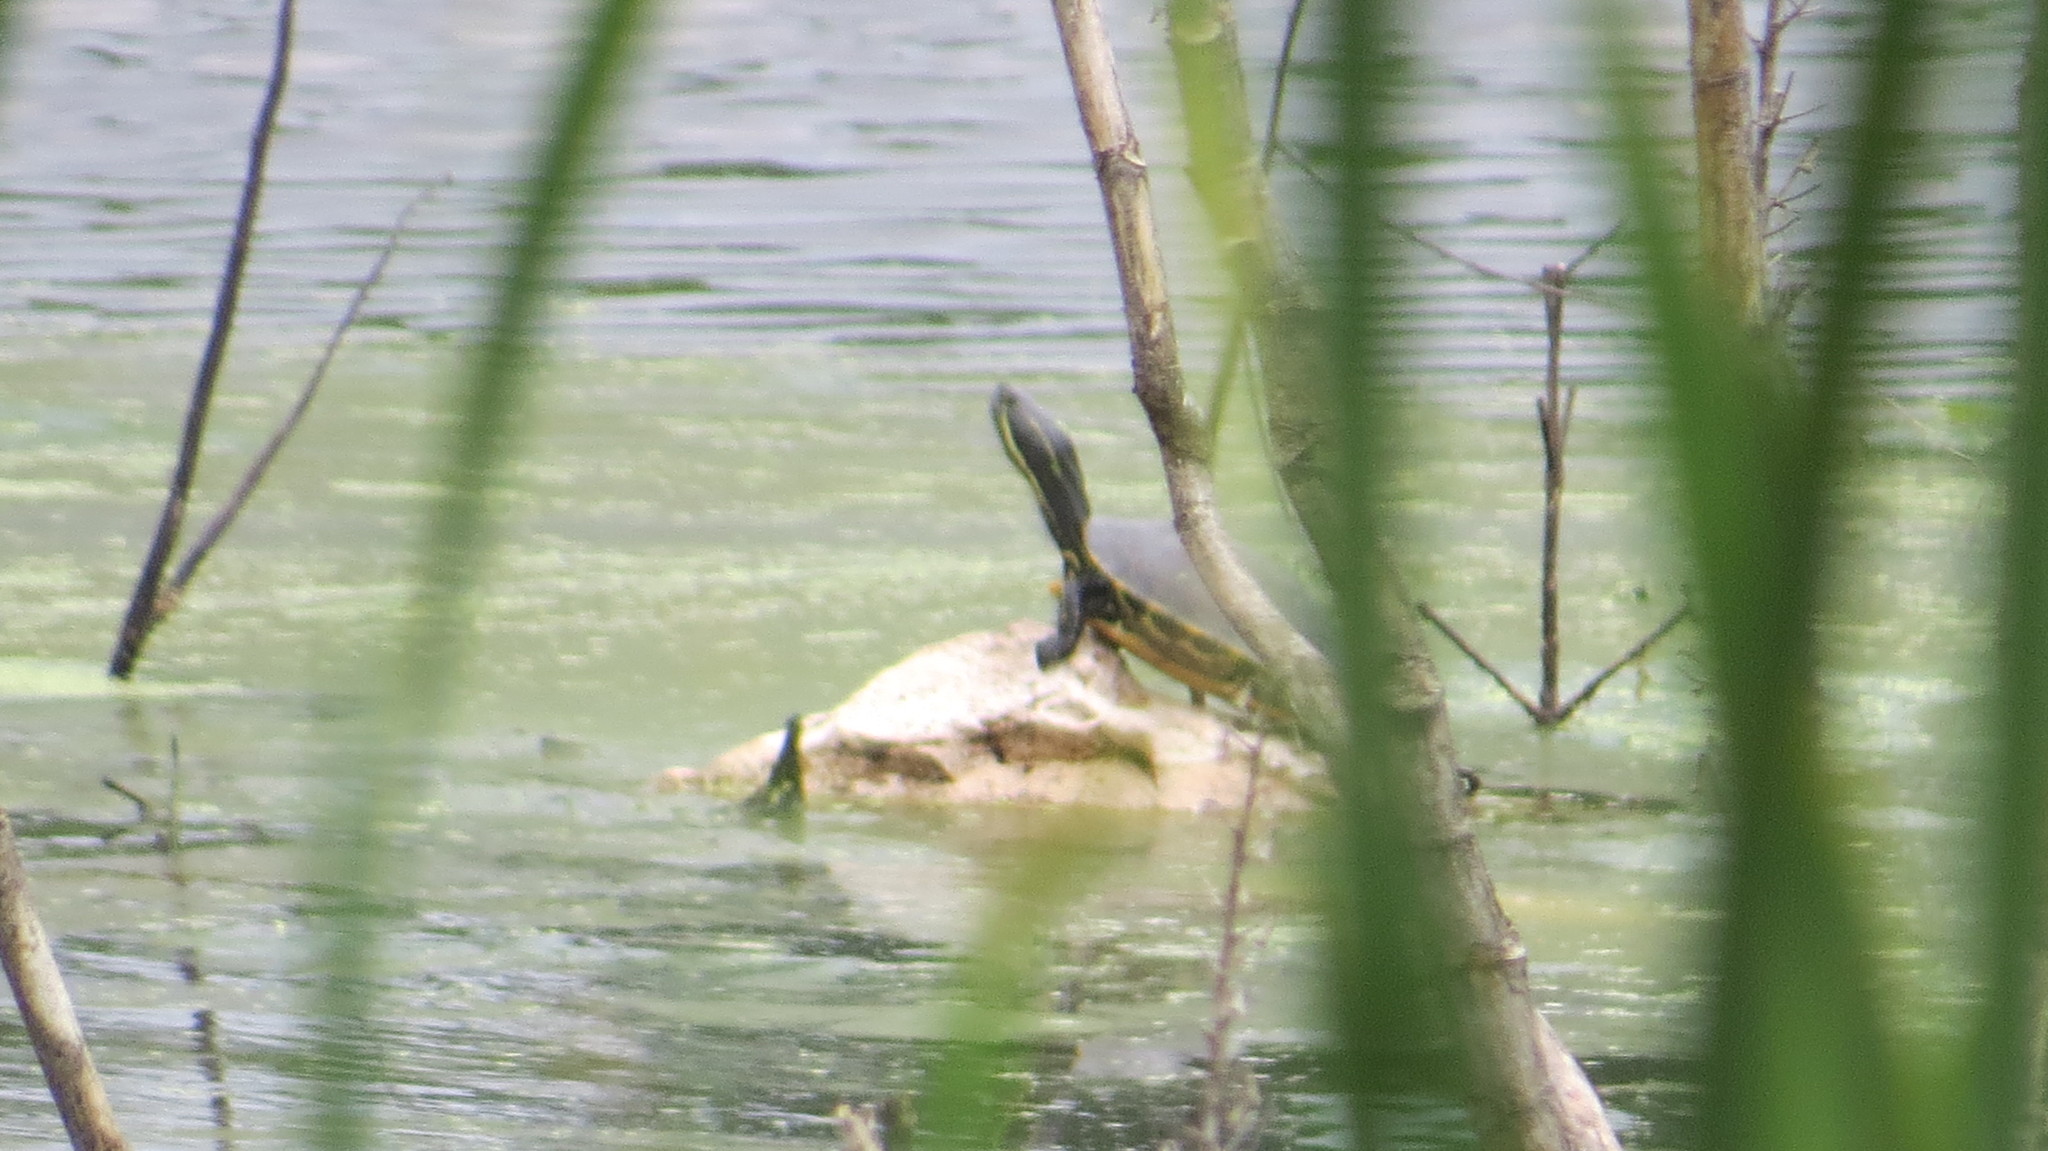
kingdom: Animalia
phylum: Chordata
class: Testudines
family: Emydidae
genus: Trachemys
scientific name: Trachemys venusta
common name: Mesoamerican slider
